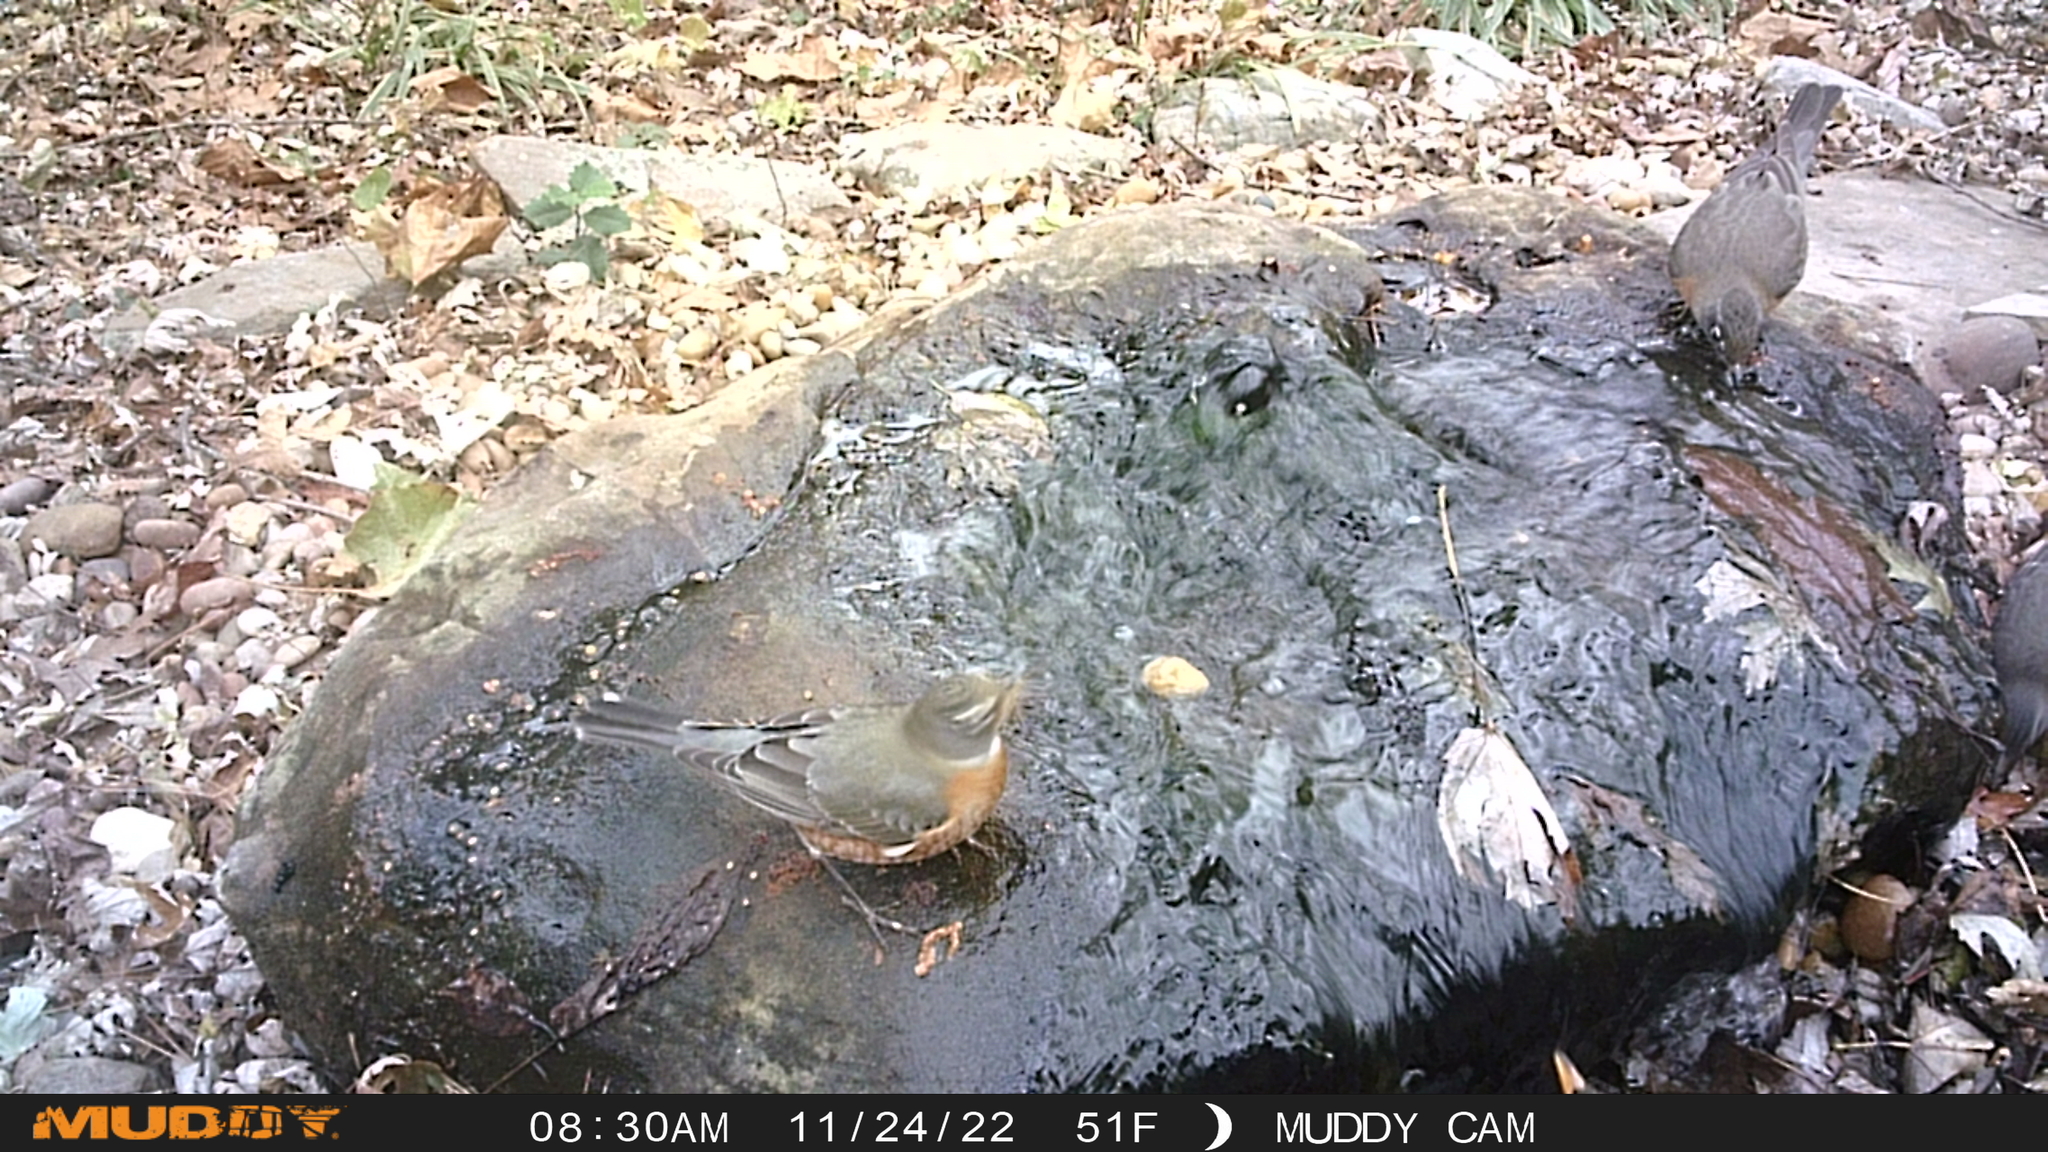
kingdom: Animalia
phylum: Chordata
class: Aves
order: Passeriformes
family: Turdidae
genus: Turdus
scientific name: Turdus migratorius
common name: American robin
